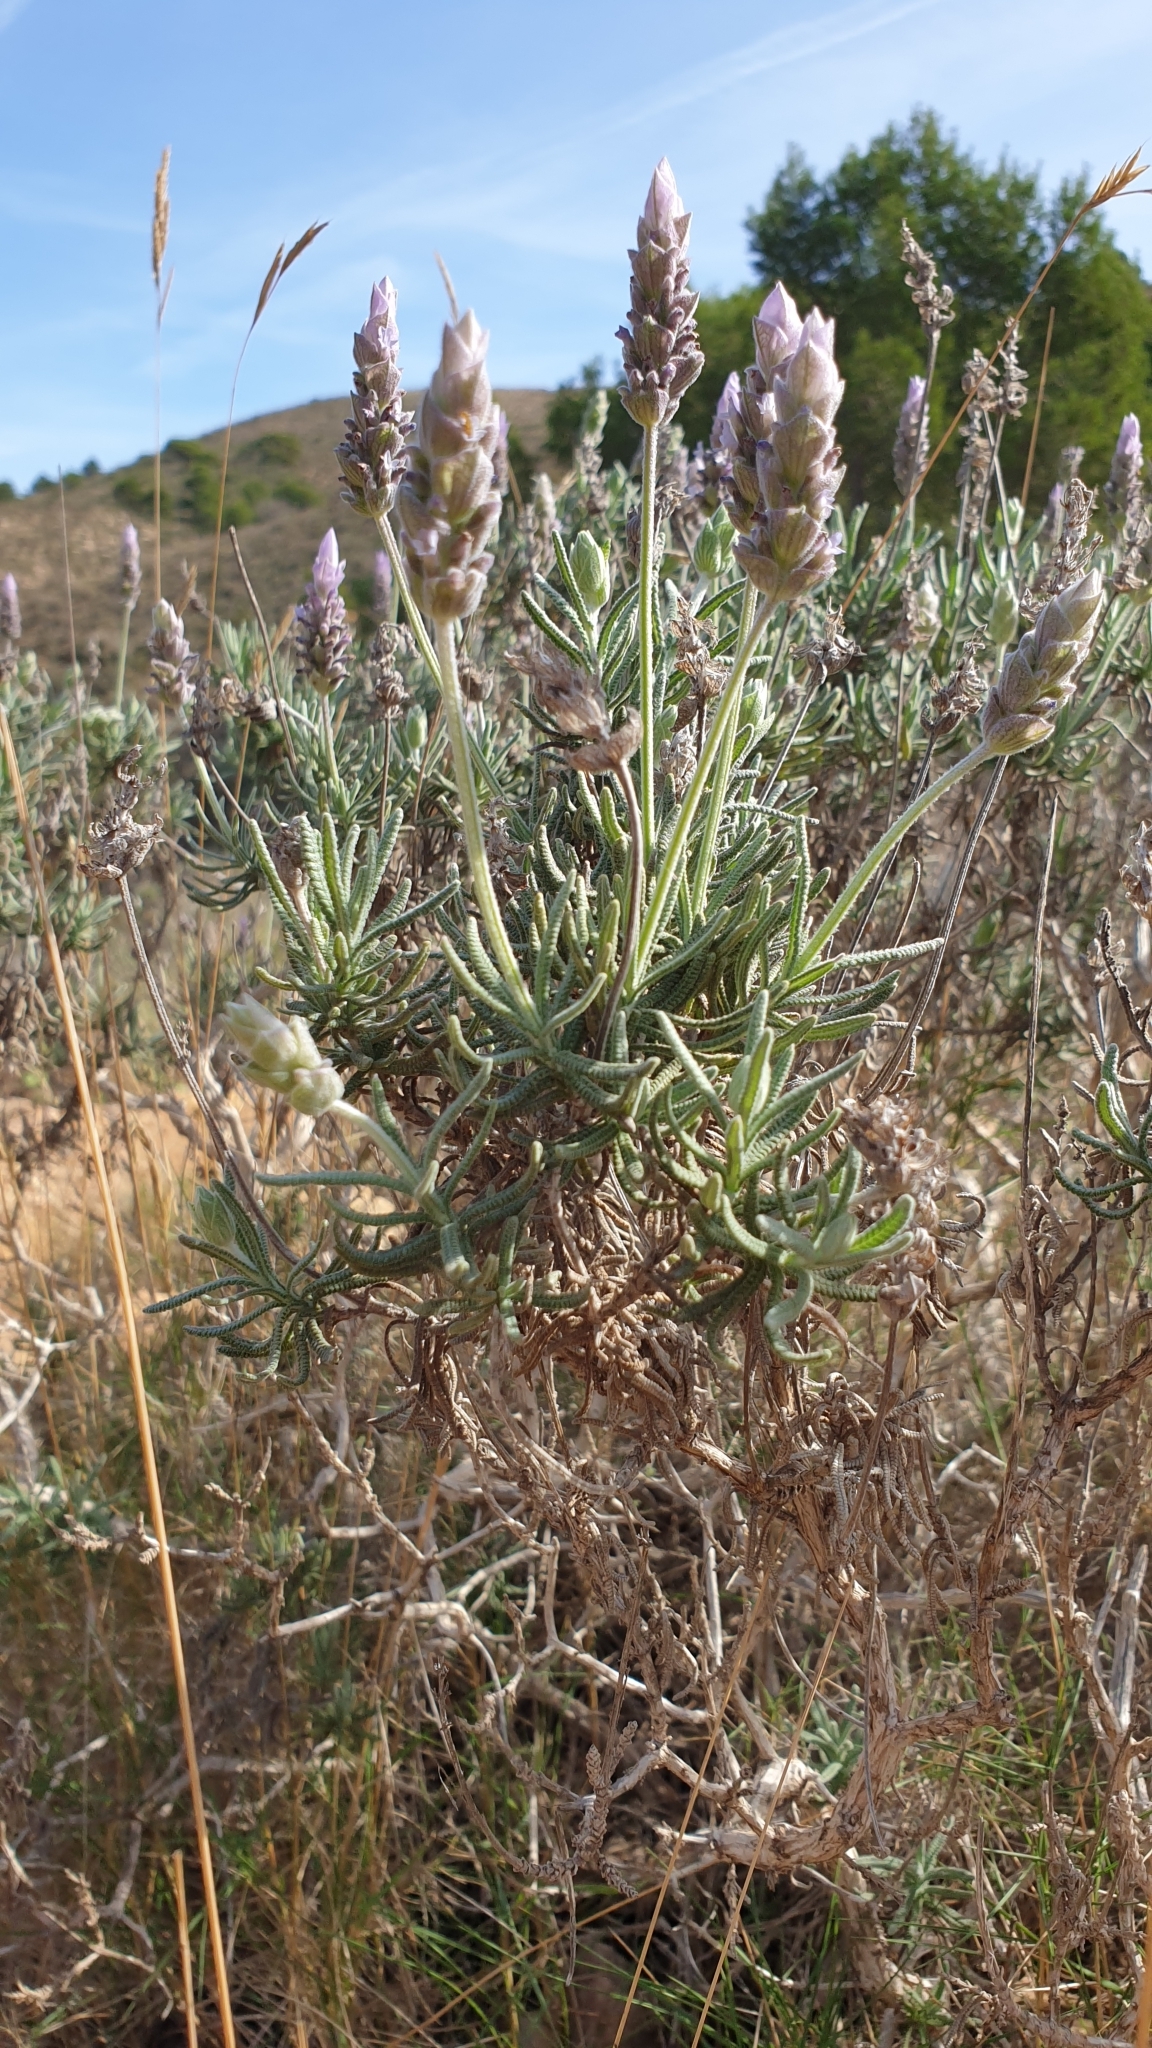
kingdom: Plantae
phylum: Tracheophyta
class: Magnoliopsida
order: Lamiales
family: Lamiaceae
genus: Lavandula
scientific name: Lavandula dentata
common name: French lavender
